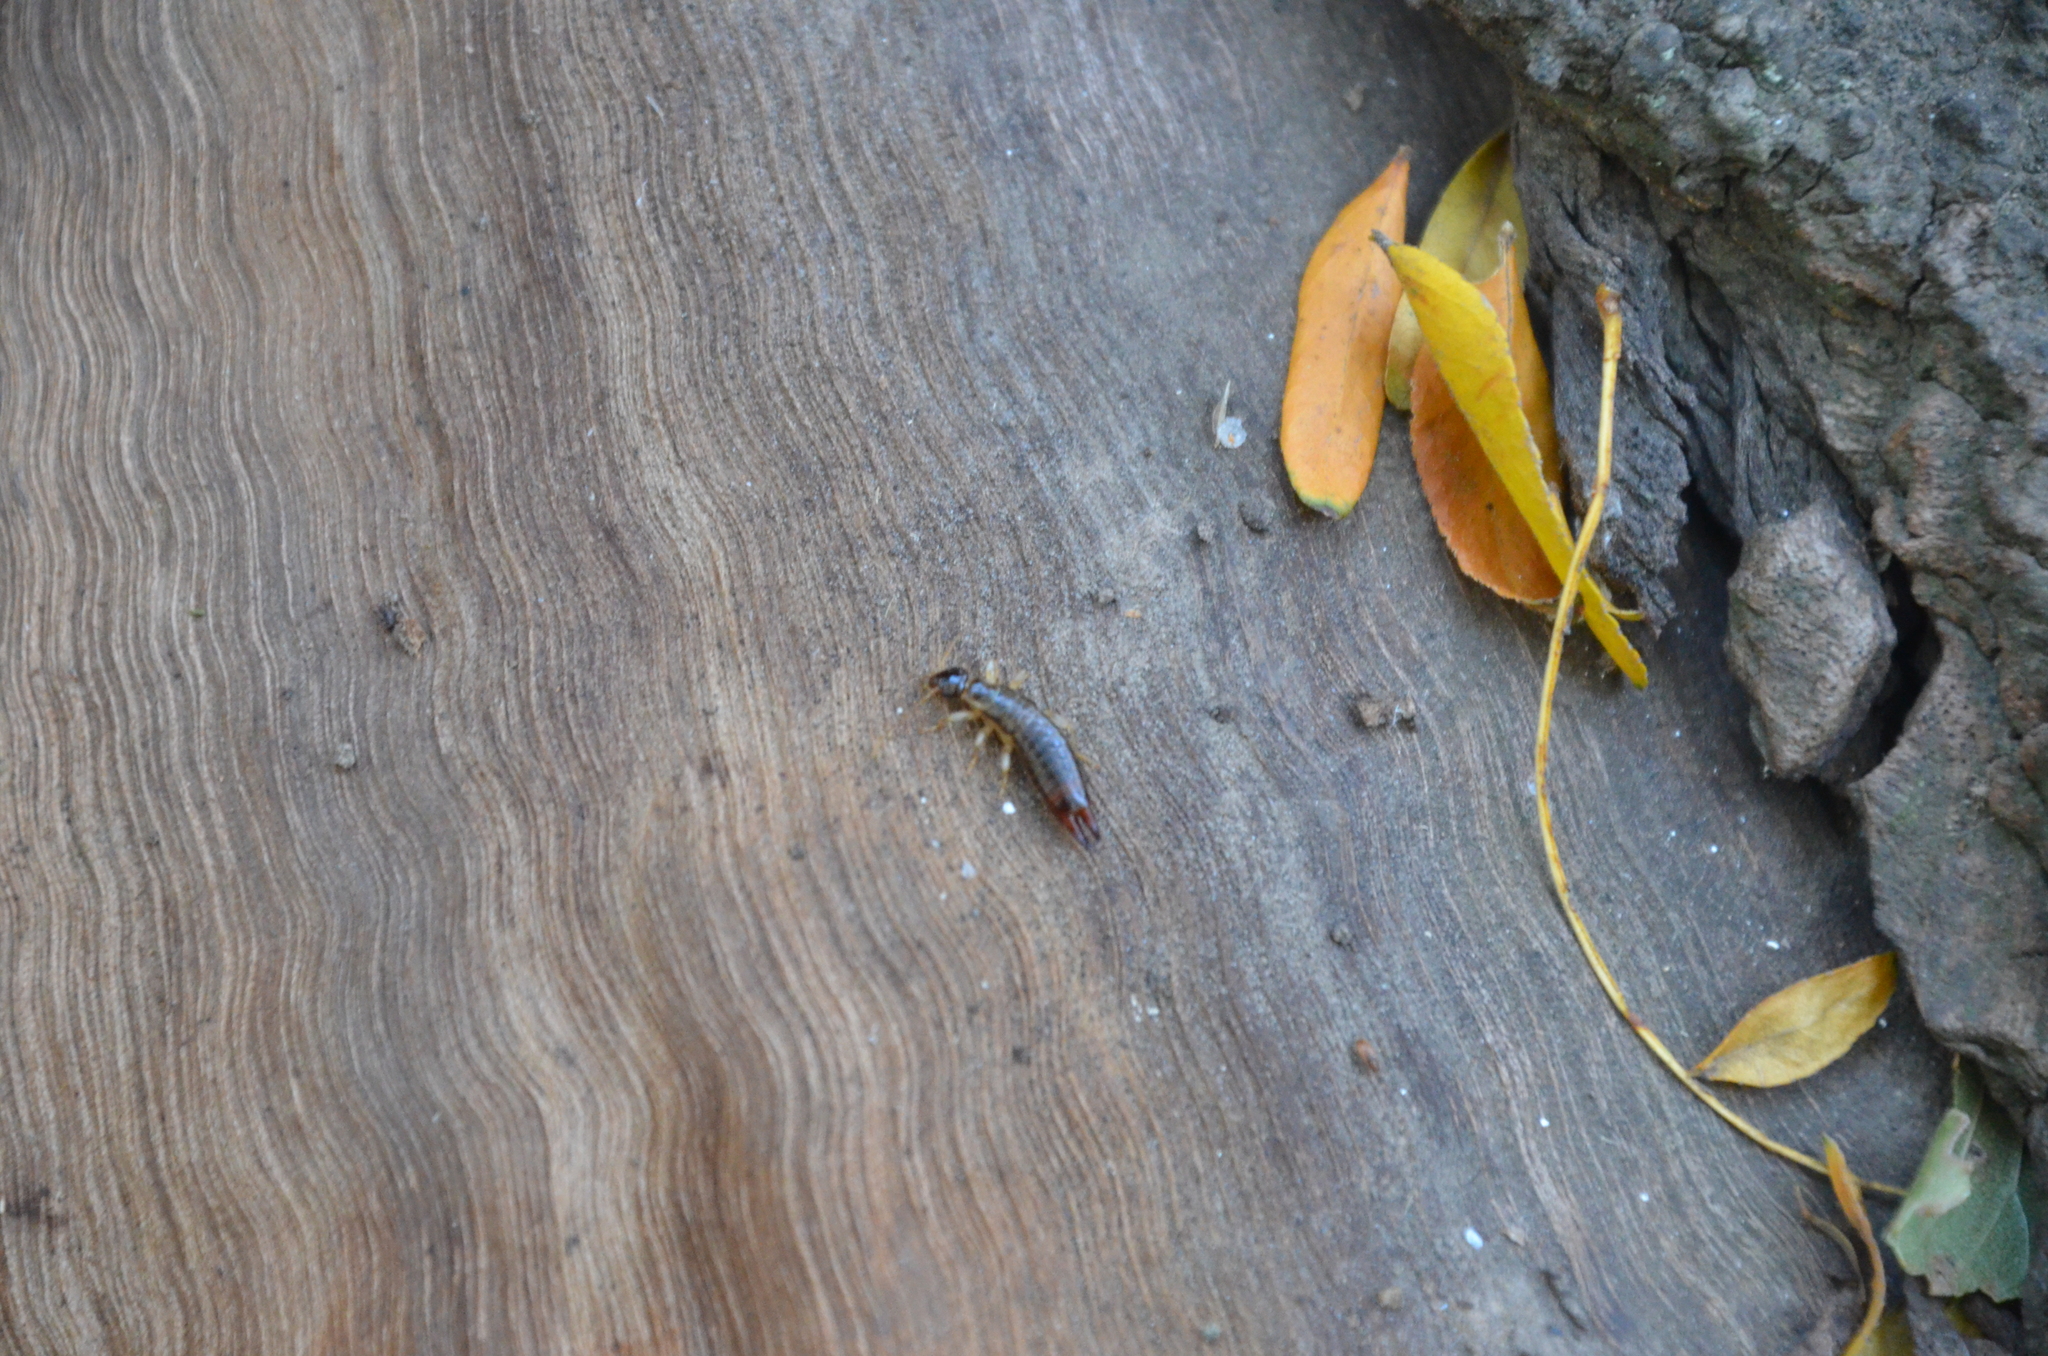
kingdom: Animalia
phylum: Arthropoda
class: Insecta
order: Dermaptera
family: Anisolabididae
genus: Euborellia
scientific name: Euborellia annulipes
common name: Ringlegged earwig
